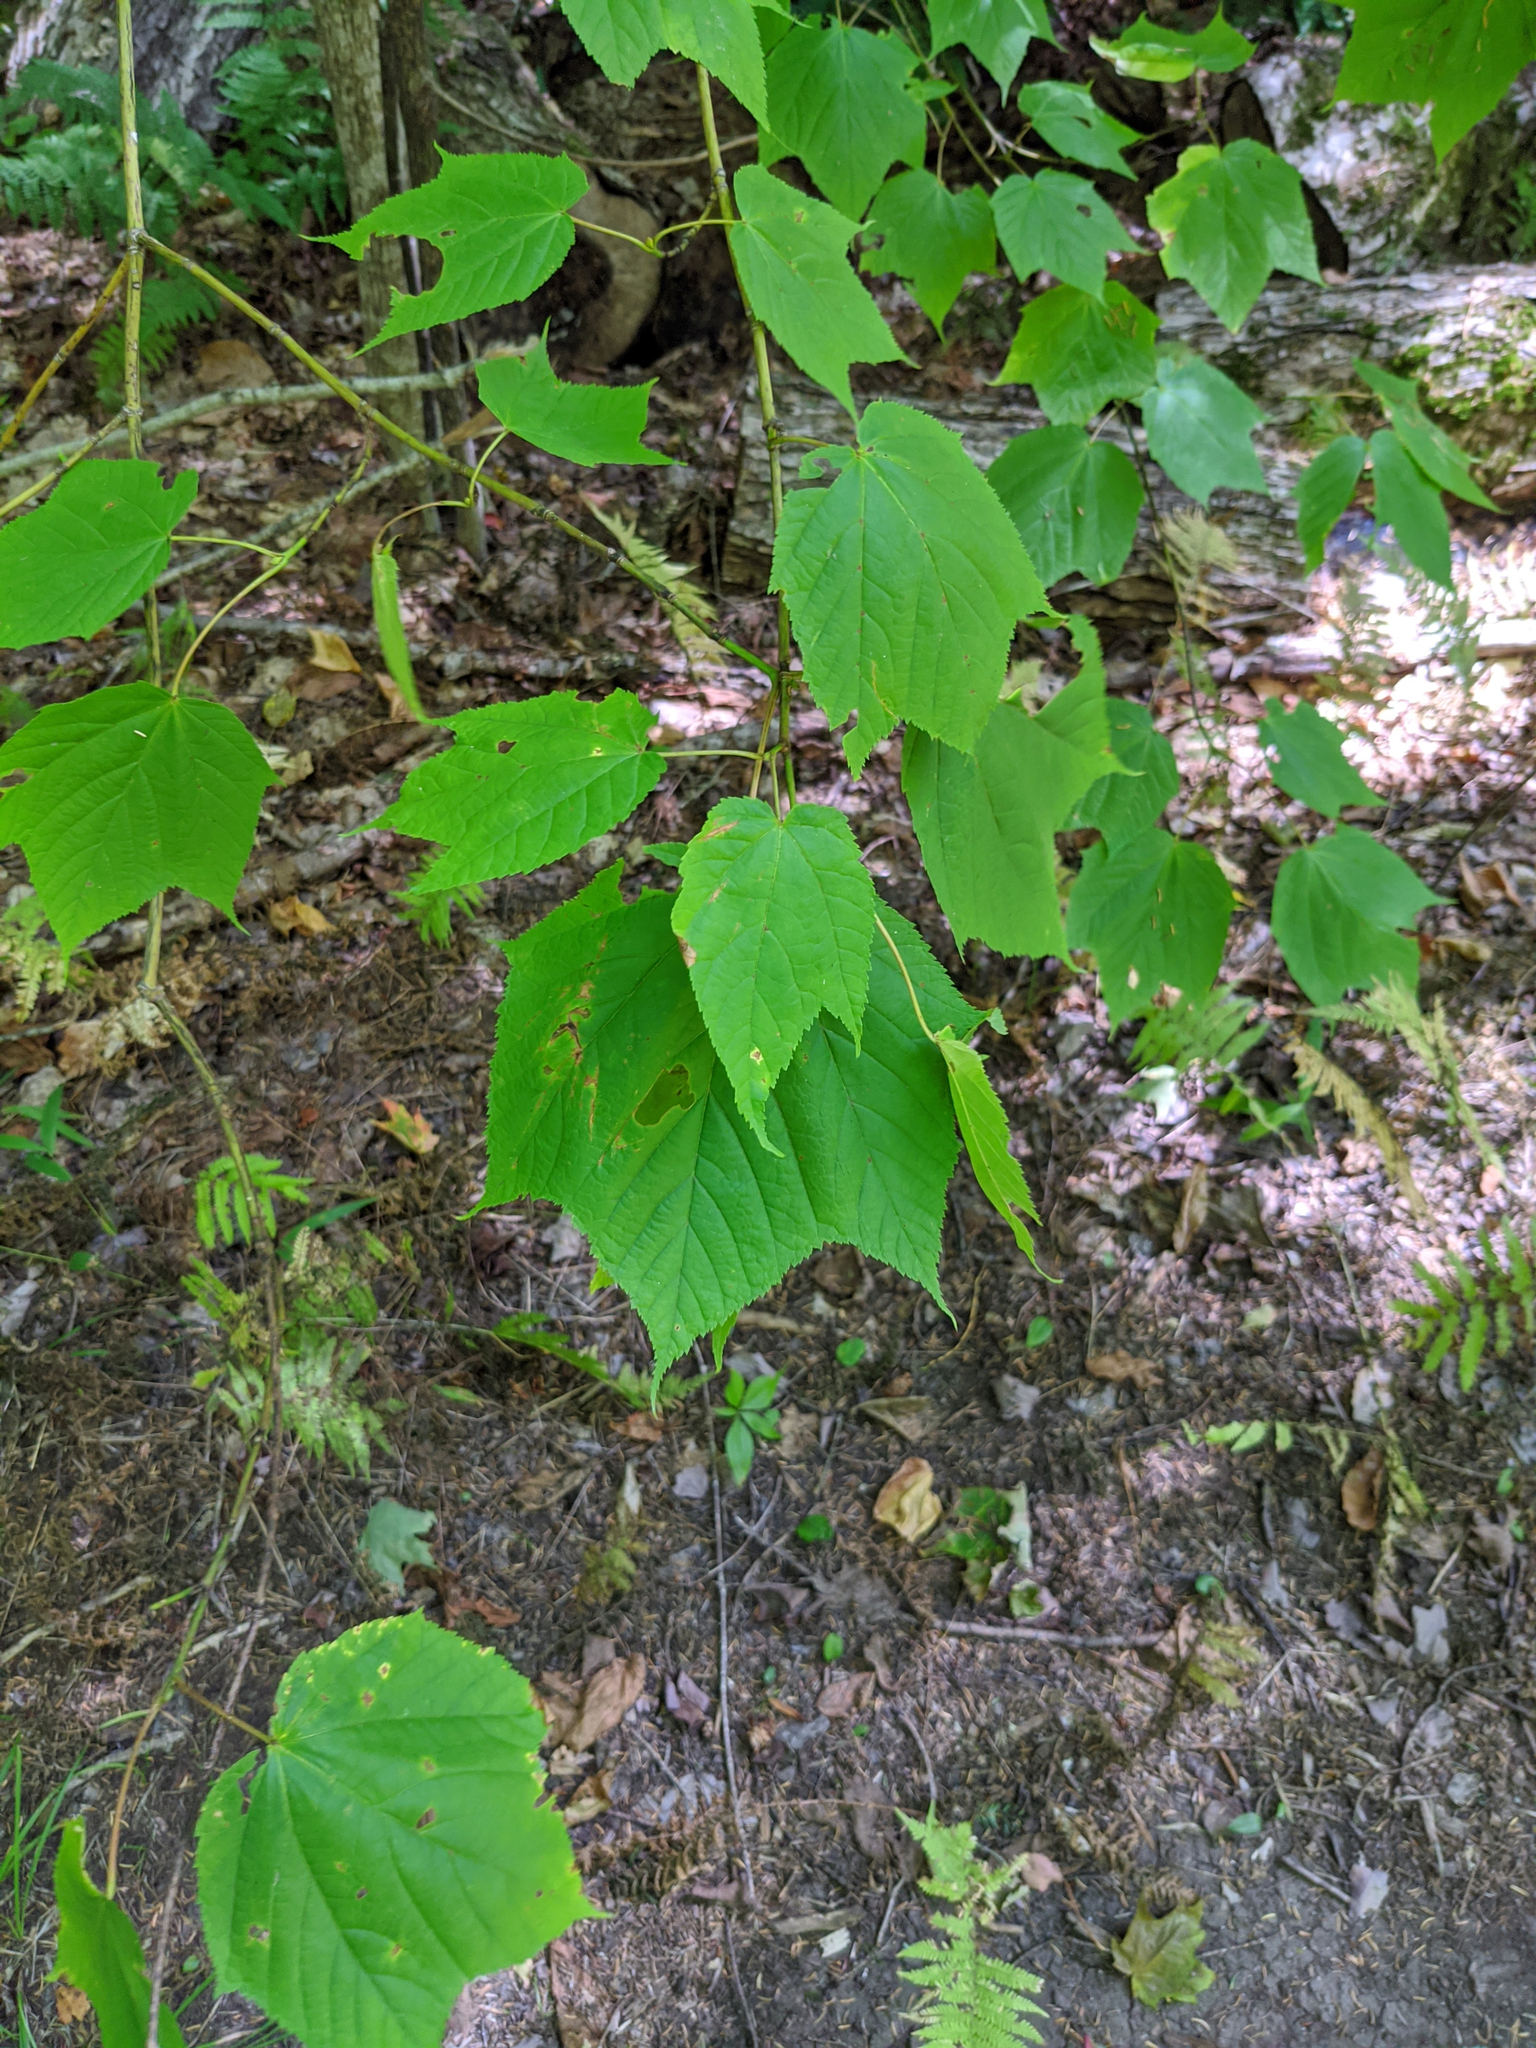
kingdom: Plantae
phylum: Tracheophyta
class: Magnoliopsida
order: Sapindales
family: Sapindaceae
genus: Acer
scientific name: Acer pensylvanicum
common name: Moosewood
